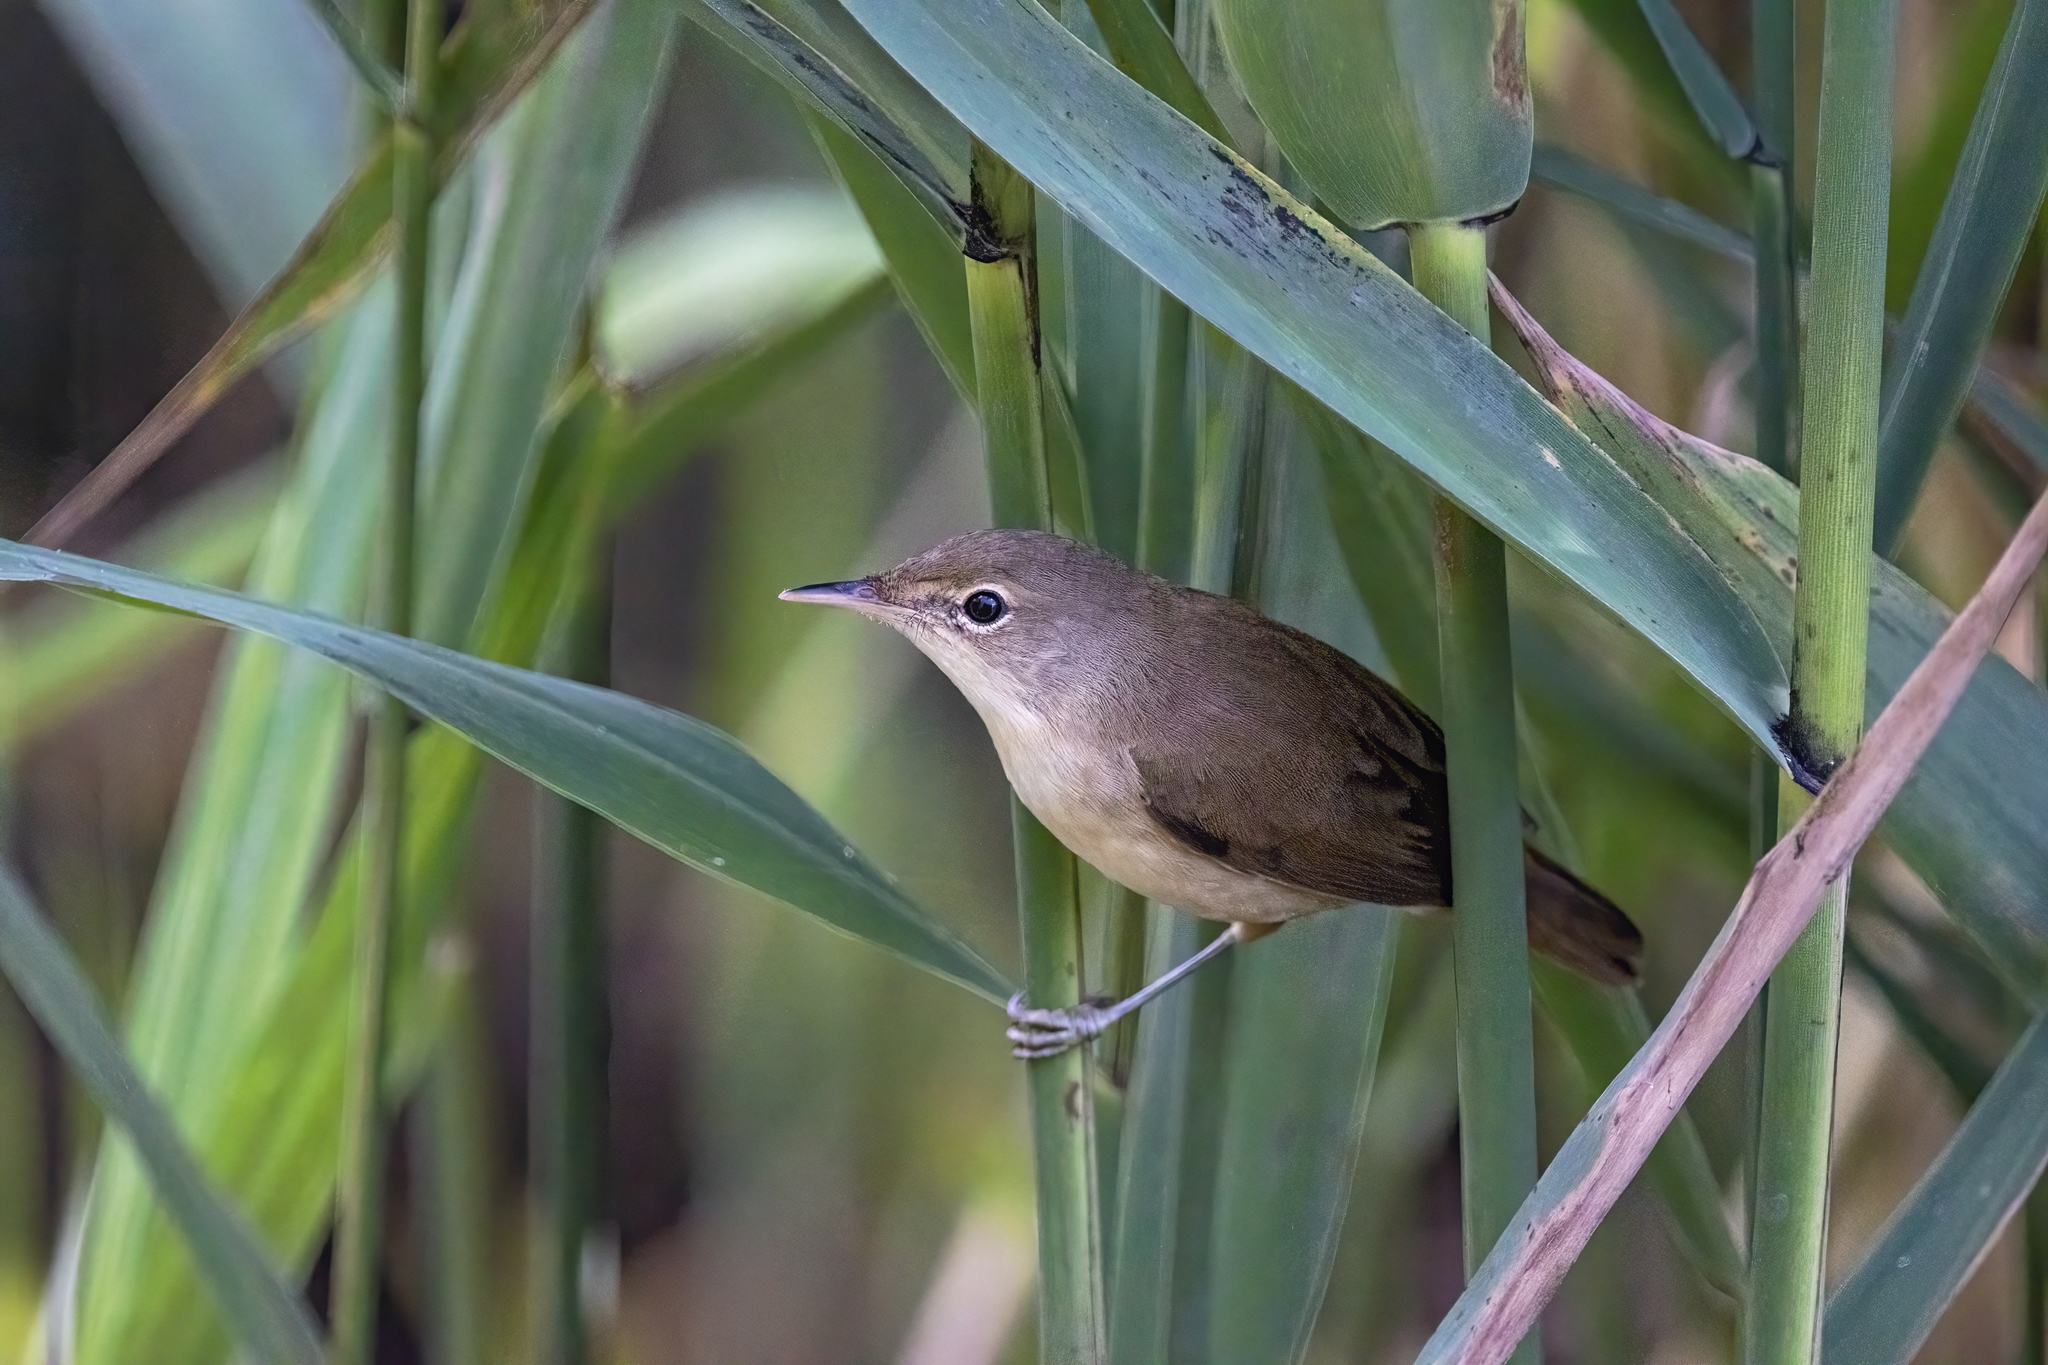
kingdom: Animalia
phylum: Chordata
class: Aves
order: Passeriformes
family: Acrocephalidae
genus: Acrocephalus
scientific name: Acrocephalus scirpaceus
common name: Eurasian reed warbler
